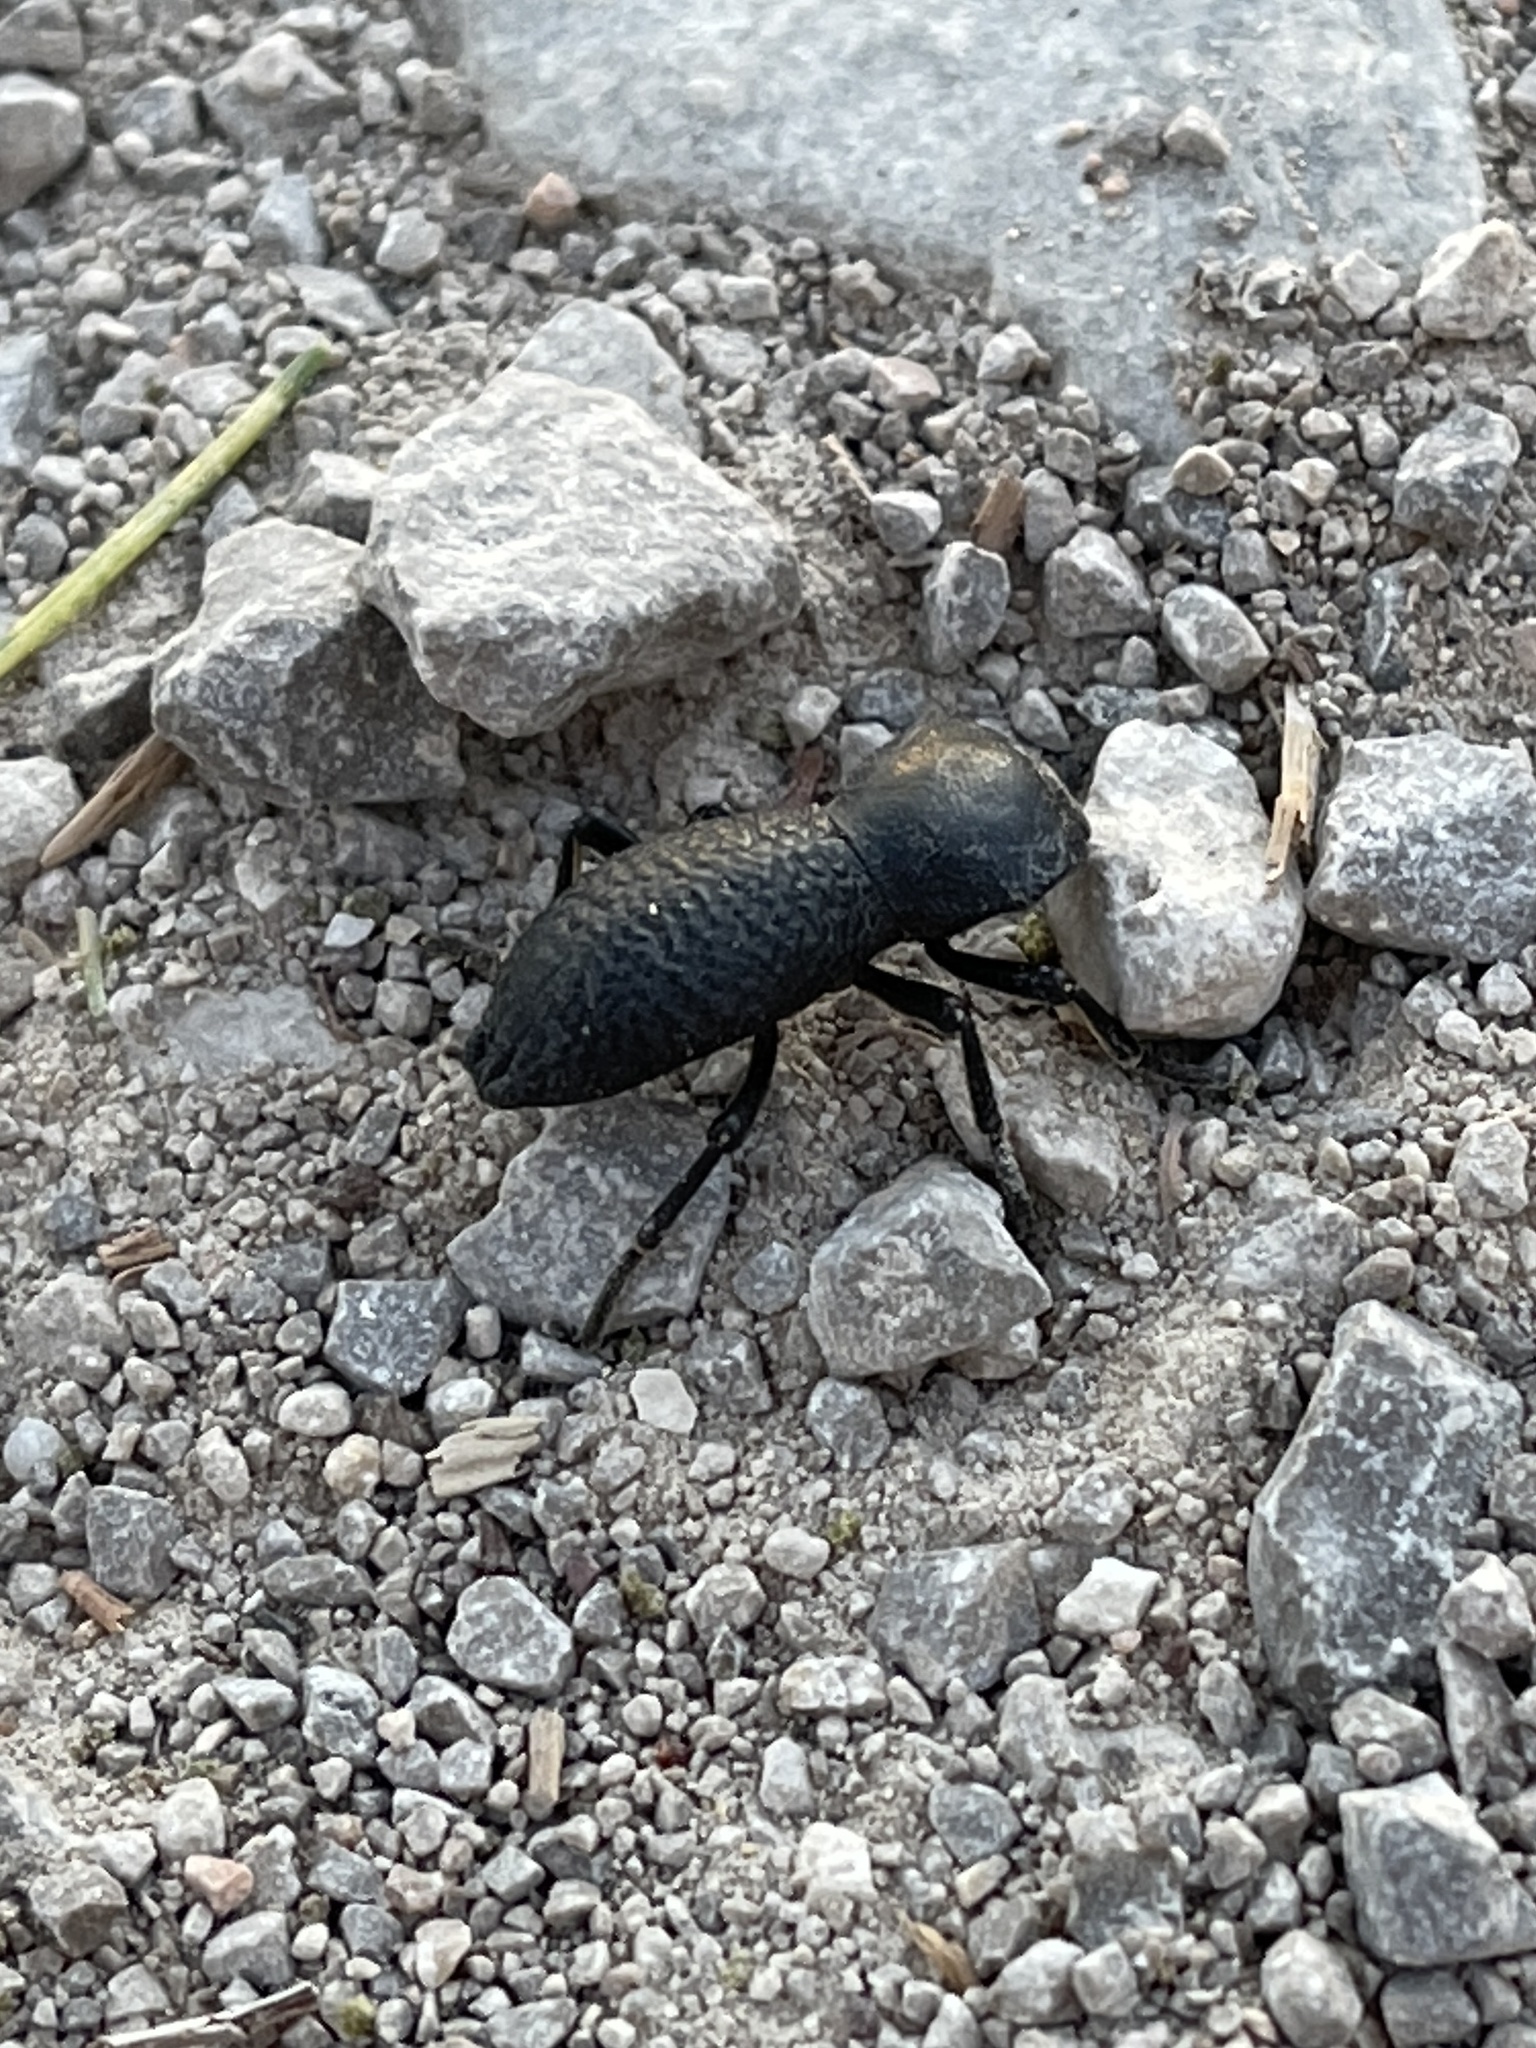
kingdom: Animalia
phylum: Arthropoda
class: Insecta
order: Coleoptera
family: Zopheridae
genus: Zopherus
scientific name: Zopherus concolor
